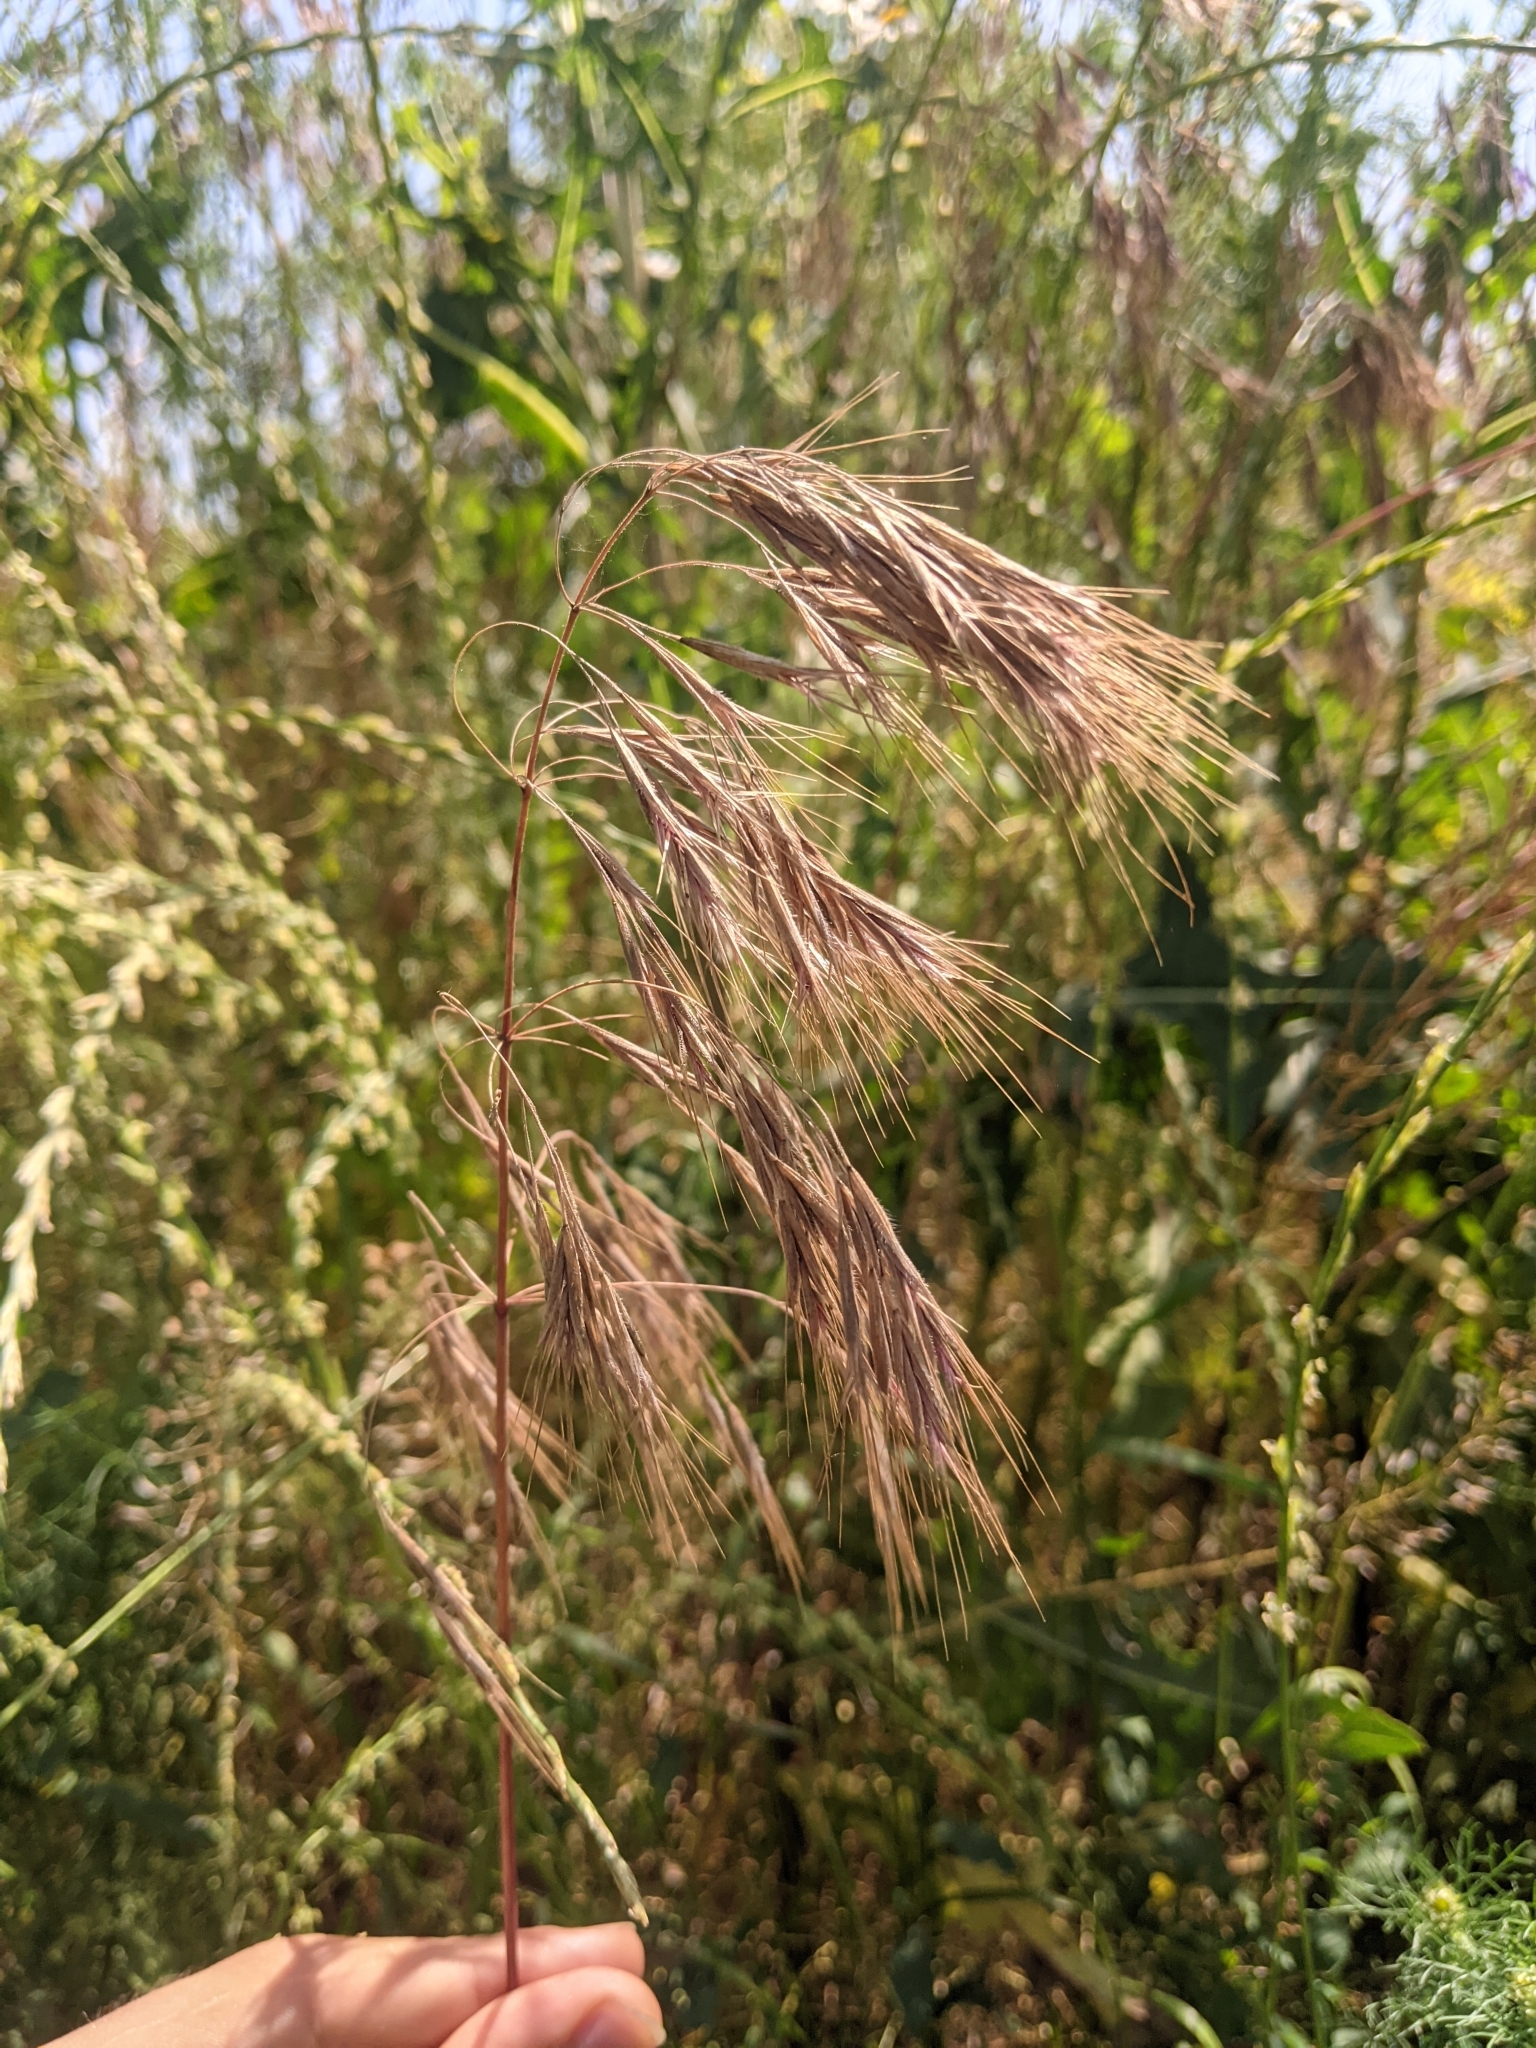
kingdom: Plantae
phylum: Tracheophyta
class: Liliopsida
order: Poales
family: Poaceae
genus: Bromus
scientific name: Bromus tectorum
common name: Cheatgrass
